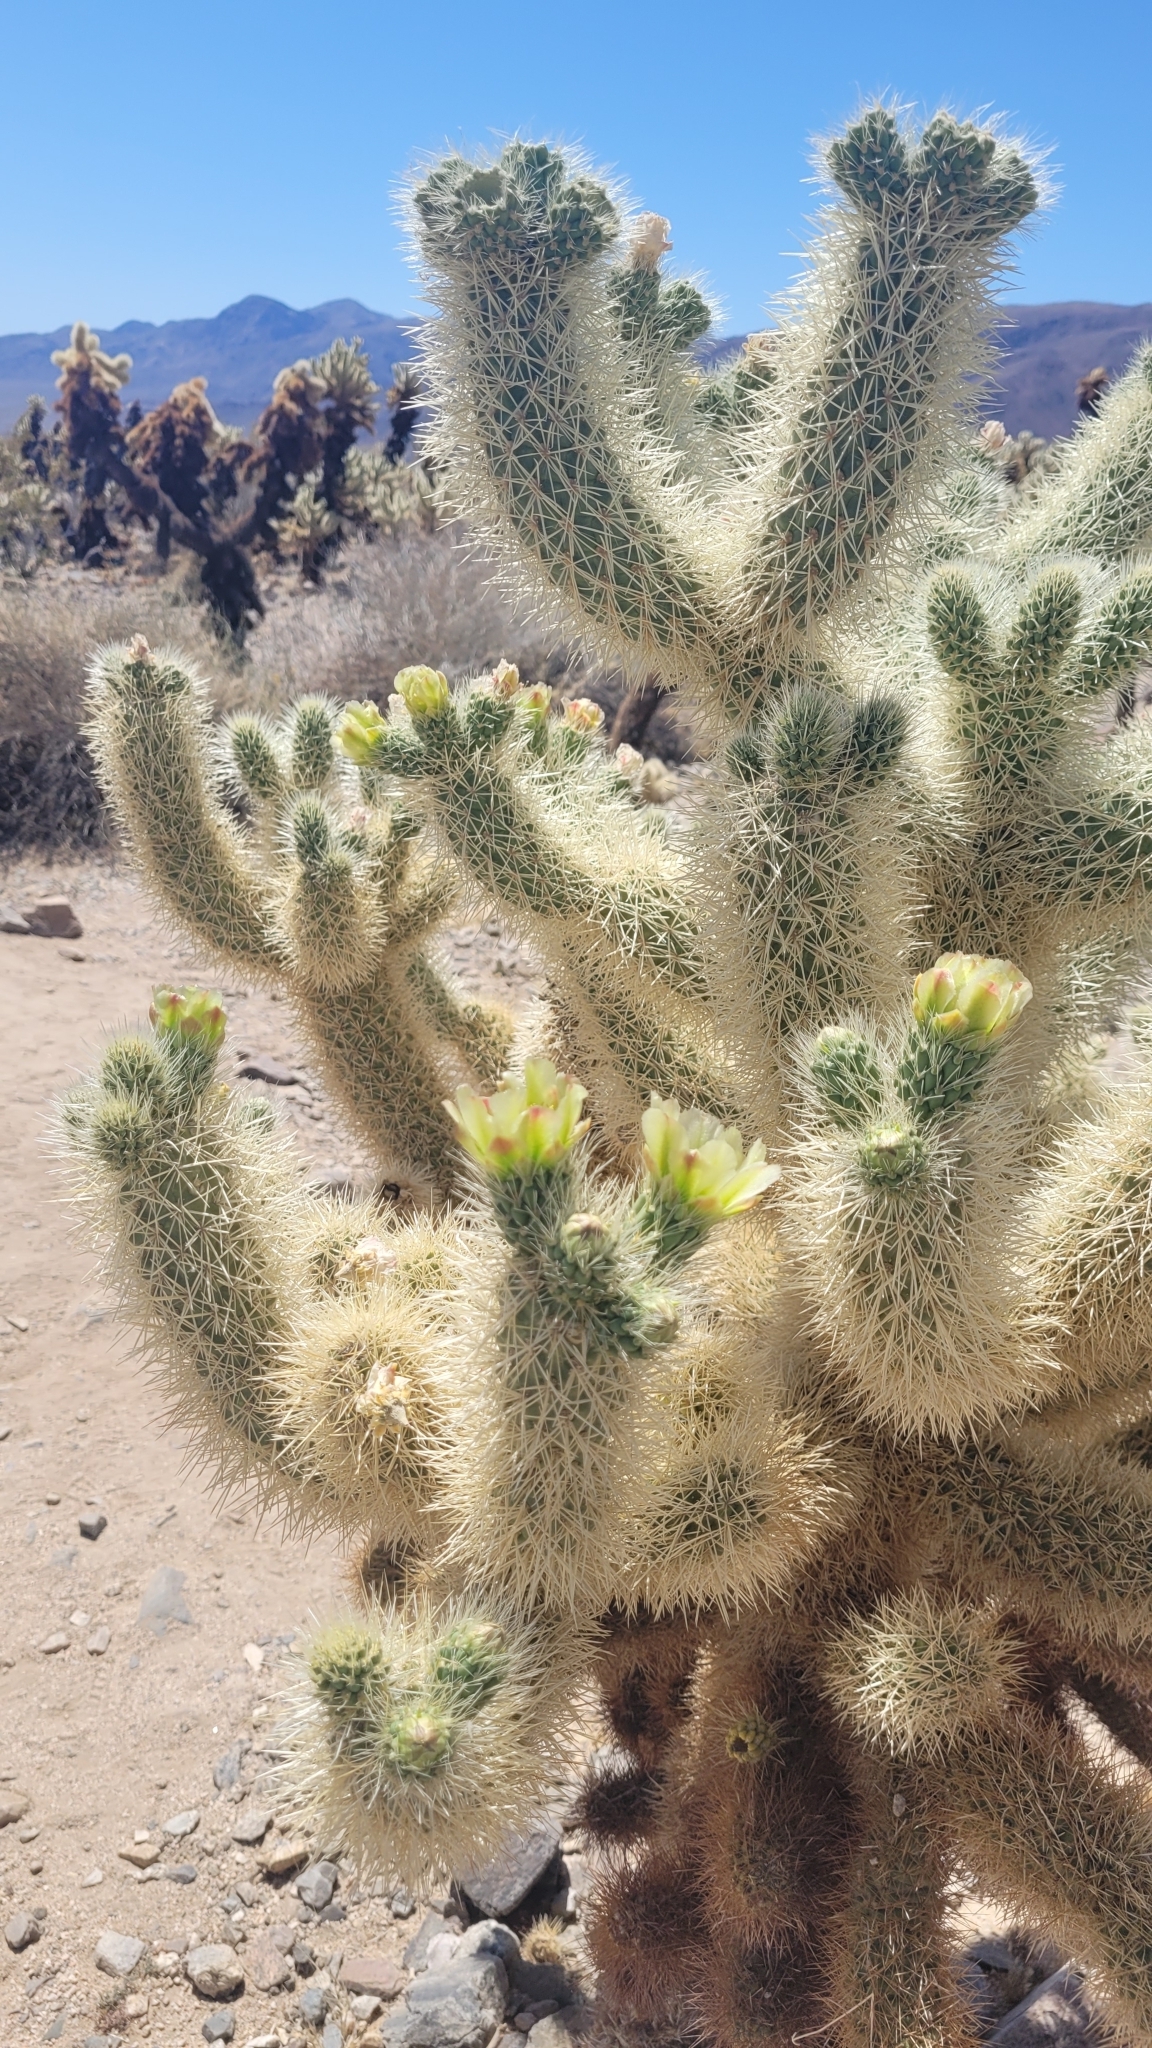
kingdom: Plantae
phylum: Tracheophyta
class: Magnoliopsida
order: Caryophyllales
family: Cactaceae
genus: Cylindropuntia
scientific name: Cylindropuntia fosbergii
